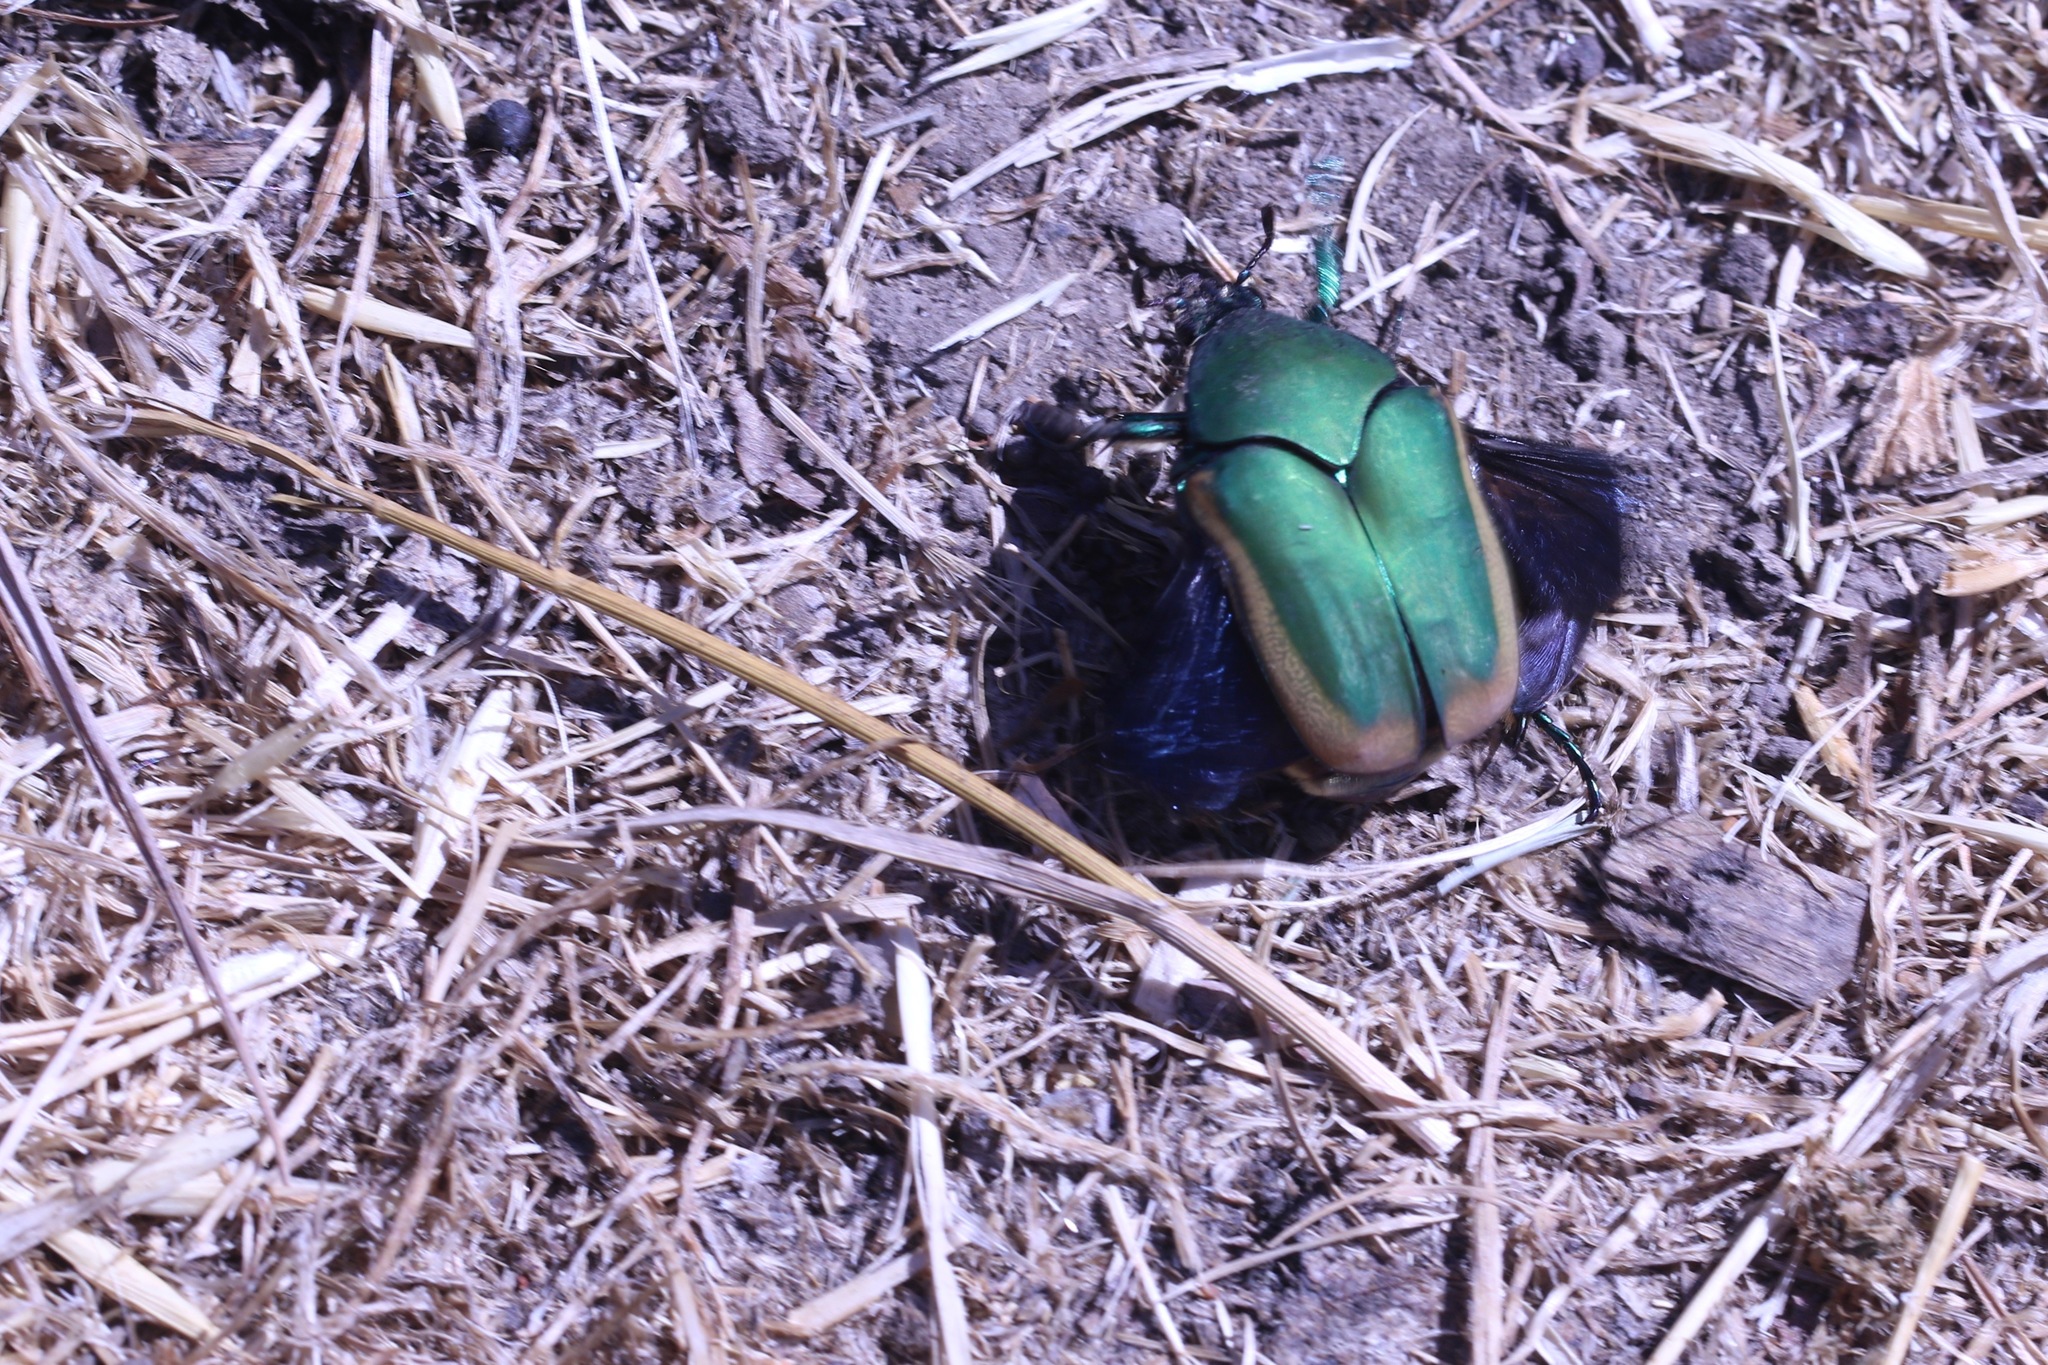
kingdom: Animalia
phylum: Arthropoda
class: Insecta
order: Coleoptera
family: Scarabaeidae
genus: Cotinis
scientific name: Cotinis mutabilis
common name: Figeater beetle
